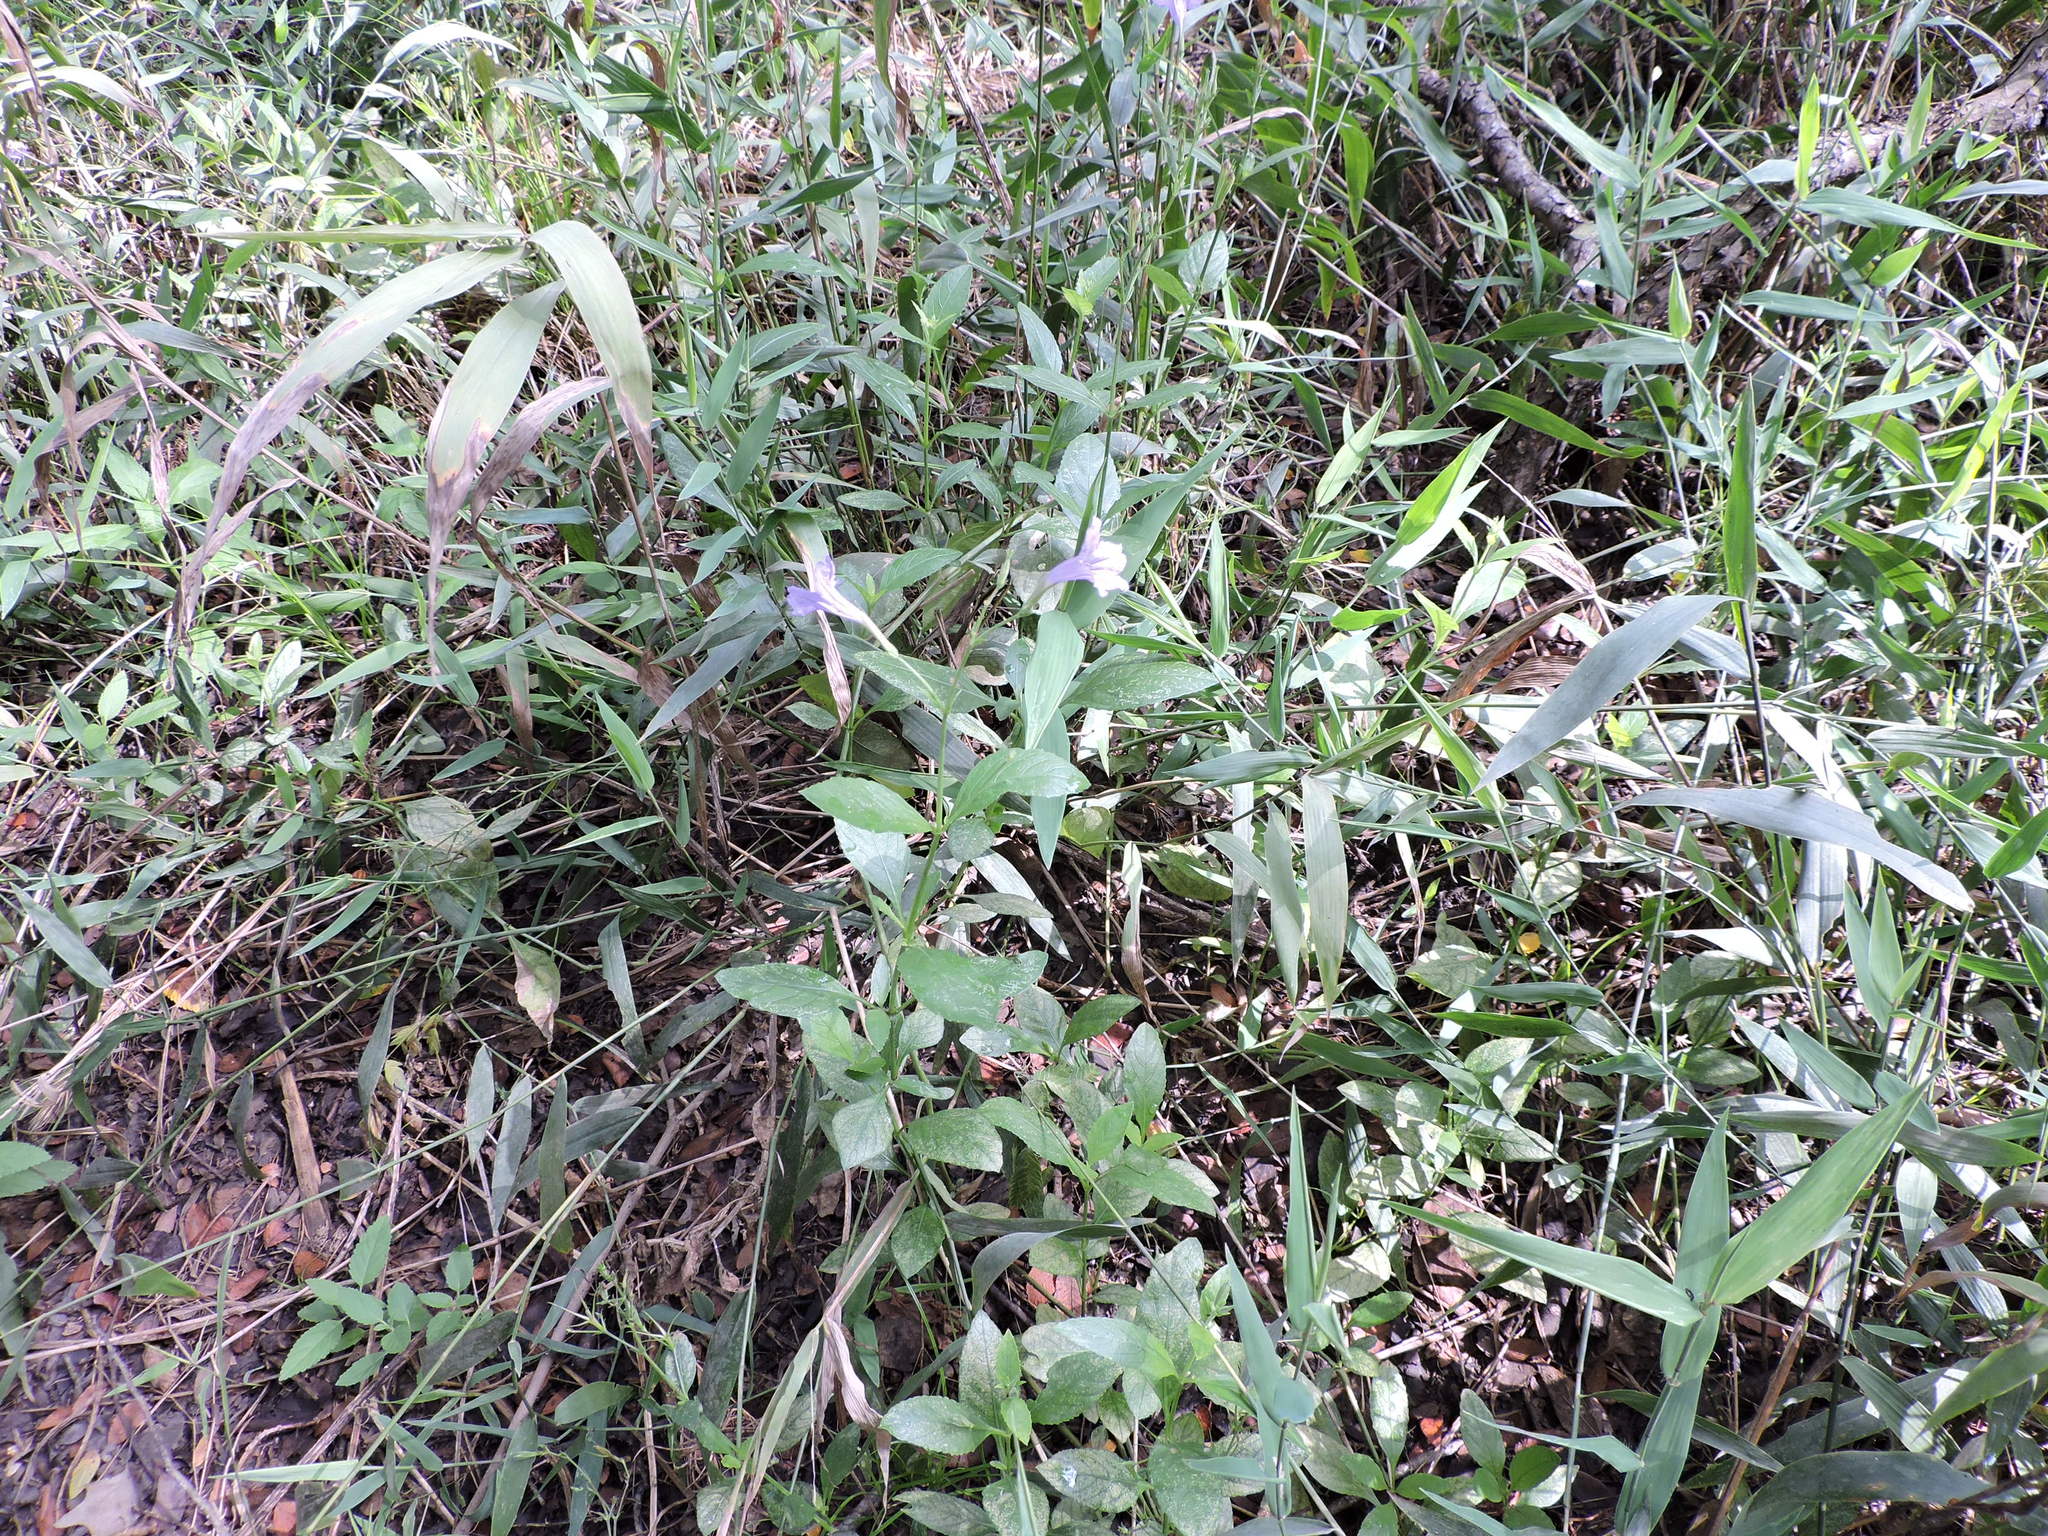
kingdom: Plantae
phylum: Tracheophyta
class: Magnoliopsida
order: Lamiales
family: Acanthaceae
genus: Ruellia
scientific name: Ruellia ciliatiflora
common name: Hairyflower wild petunia
